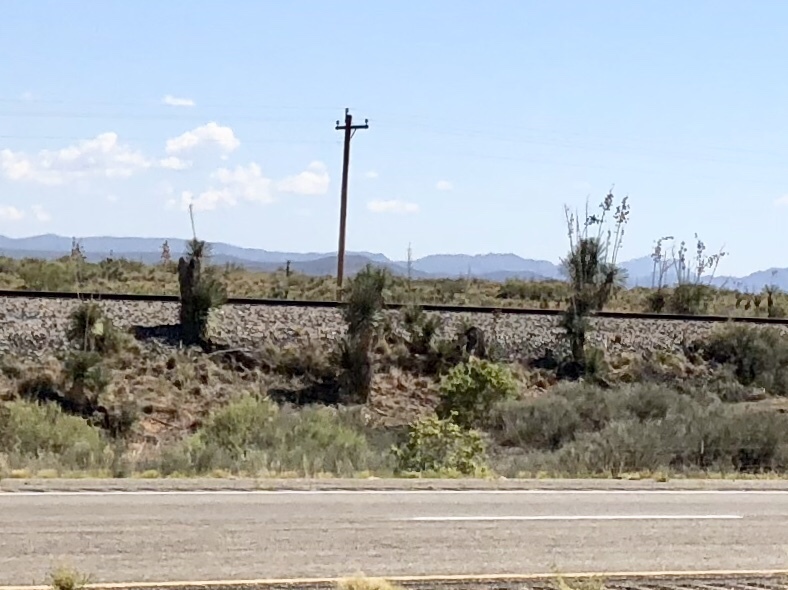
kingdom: Plantae
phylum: Tracheophyta
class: Liliopsida
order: Asparagales
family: Asparagaceae
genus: Yucca
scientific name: Yucca elata
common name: Palmella
